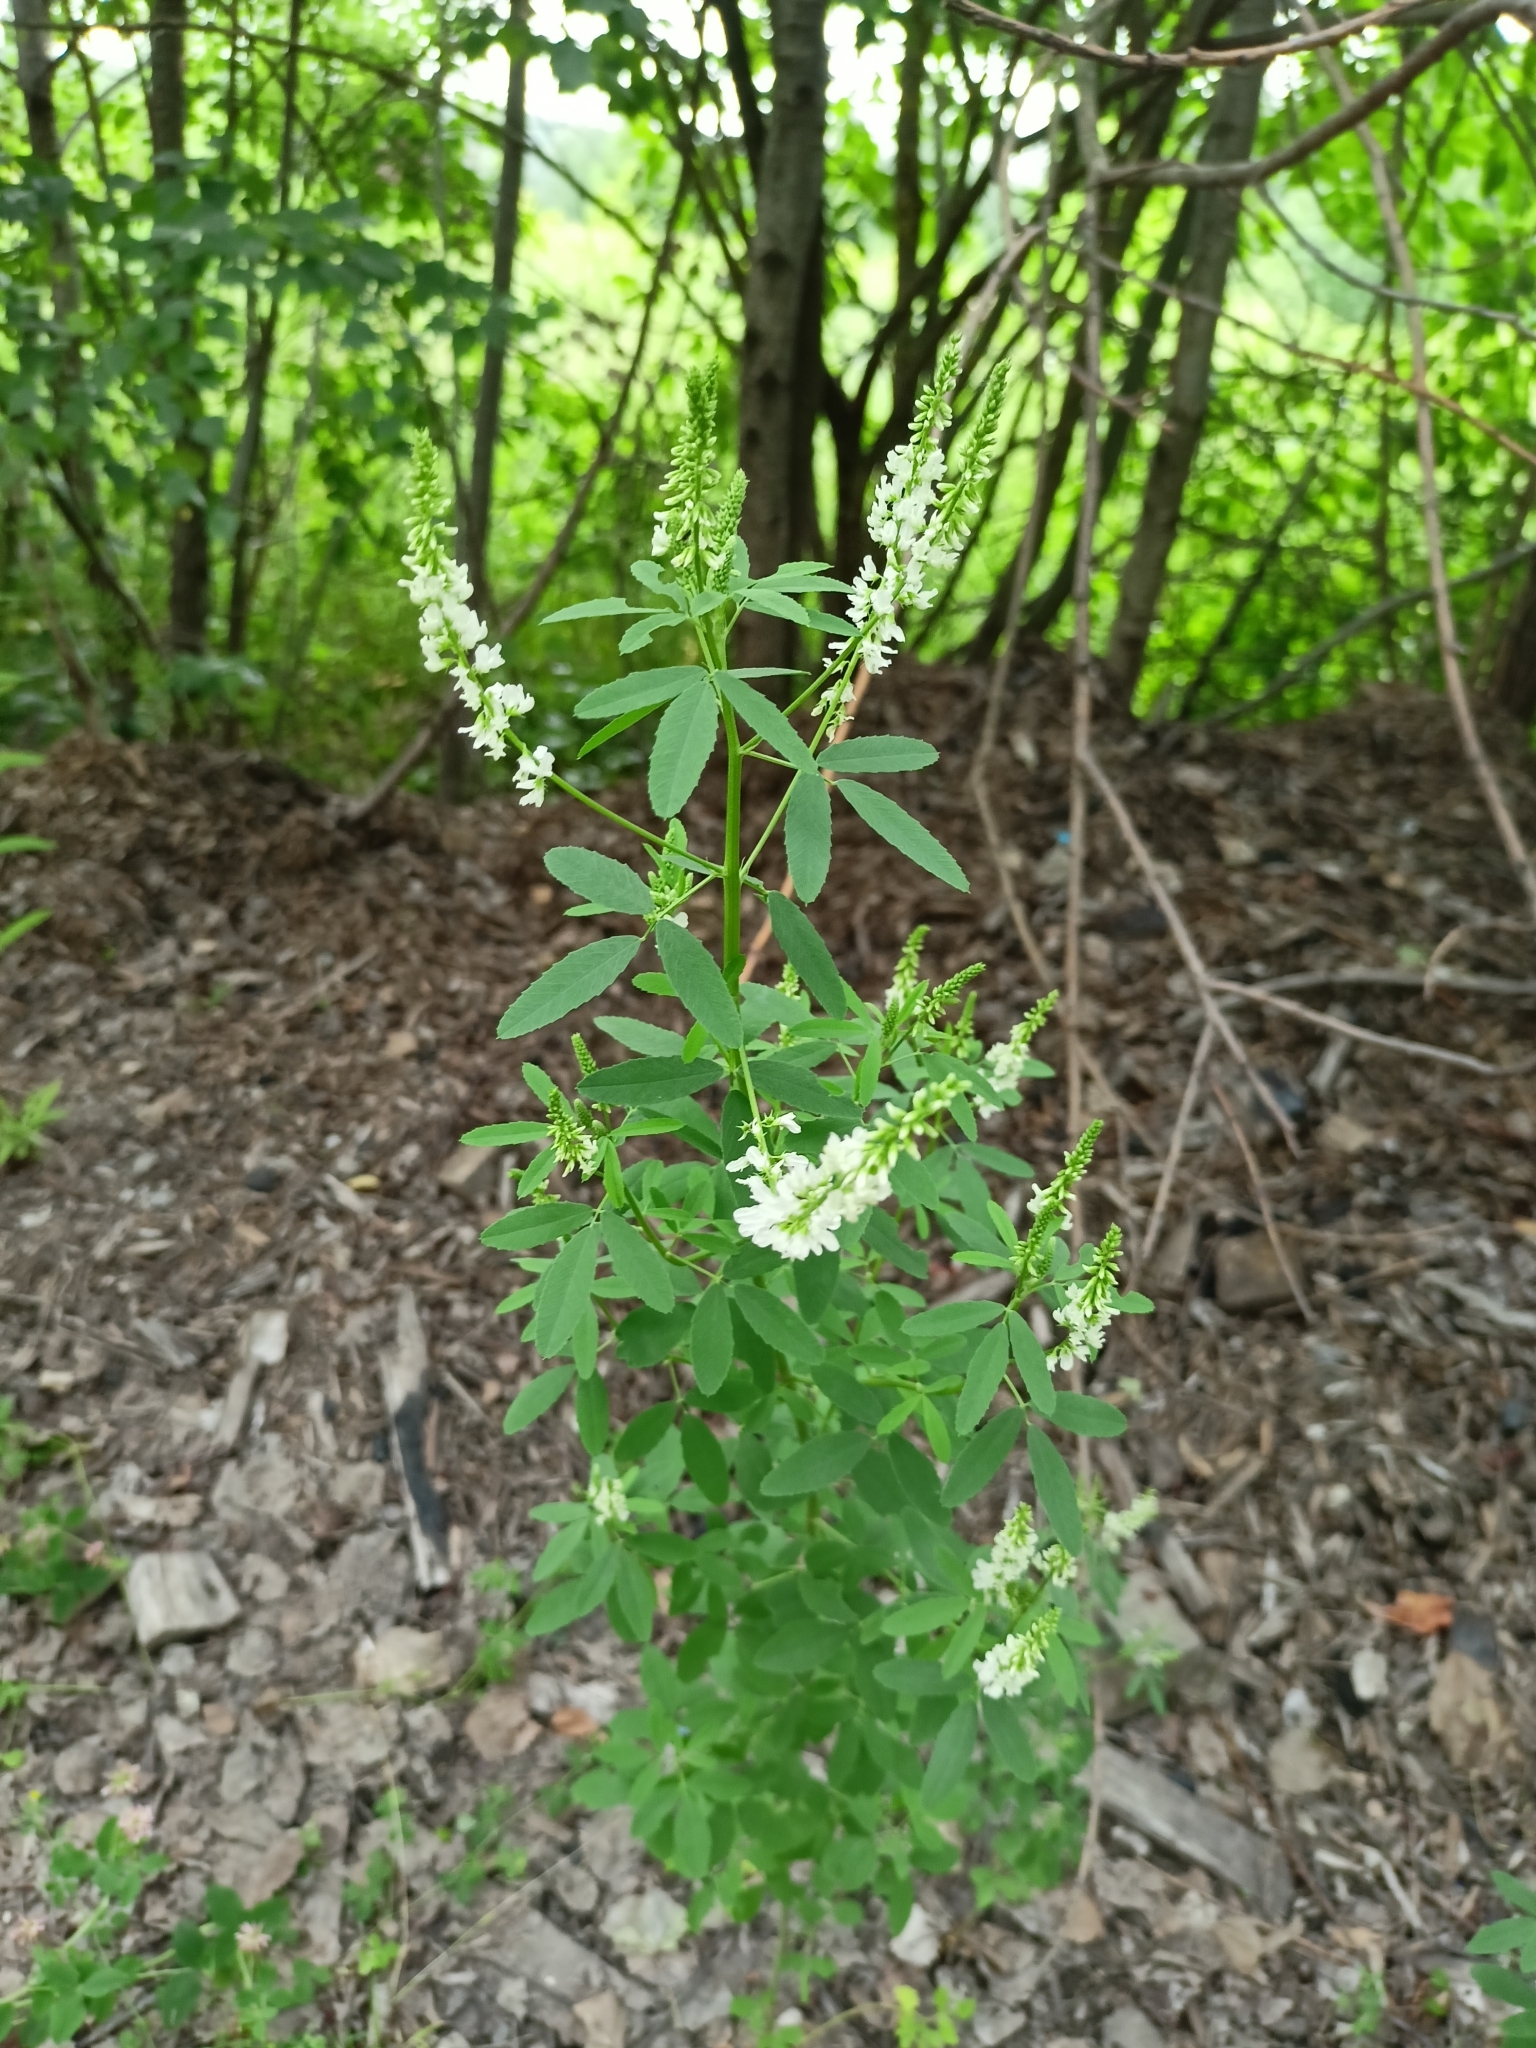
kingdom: Plantae
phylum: Tracheophyta
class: Magnoliopsida
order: Fabales
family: Fabaceae
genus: Melilotus
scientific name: Melilotus albus
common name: White melilot
